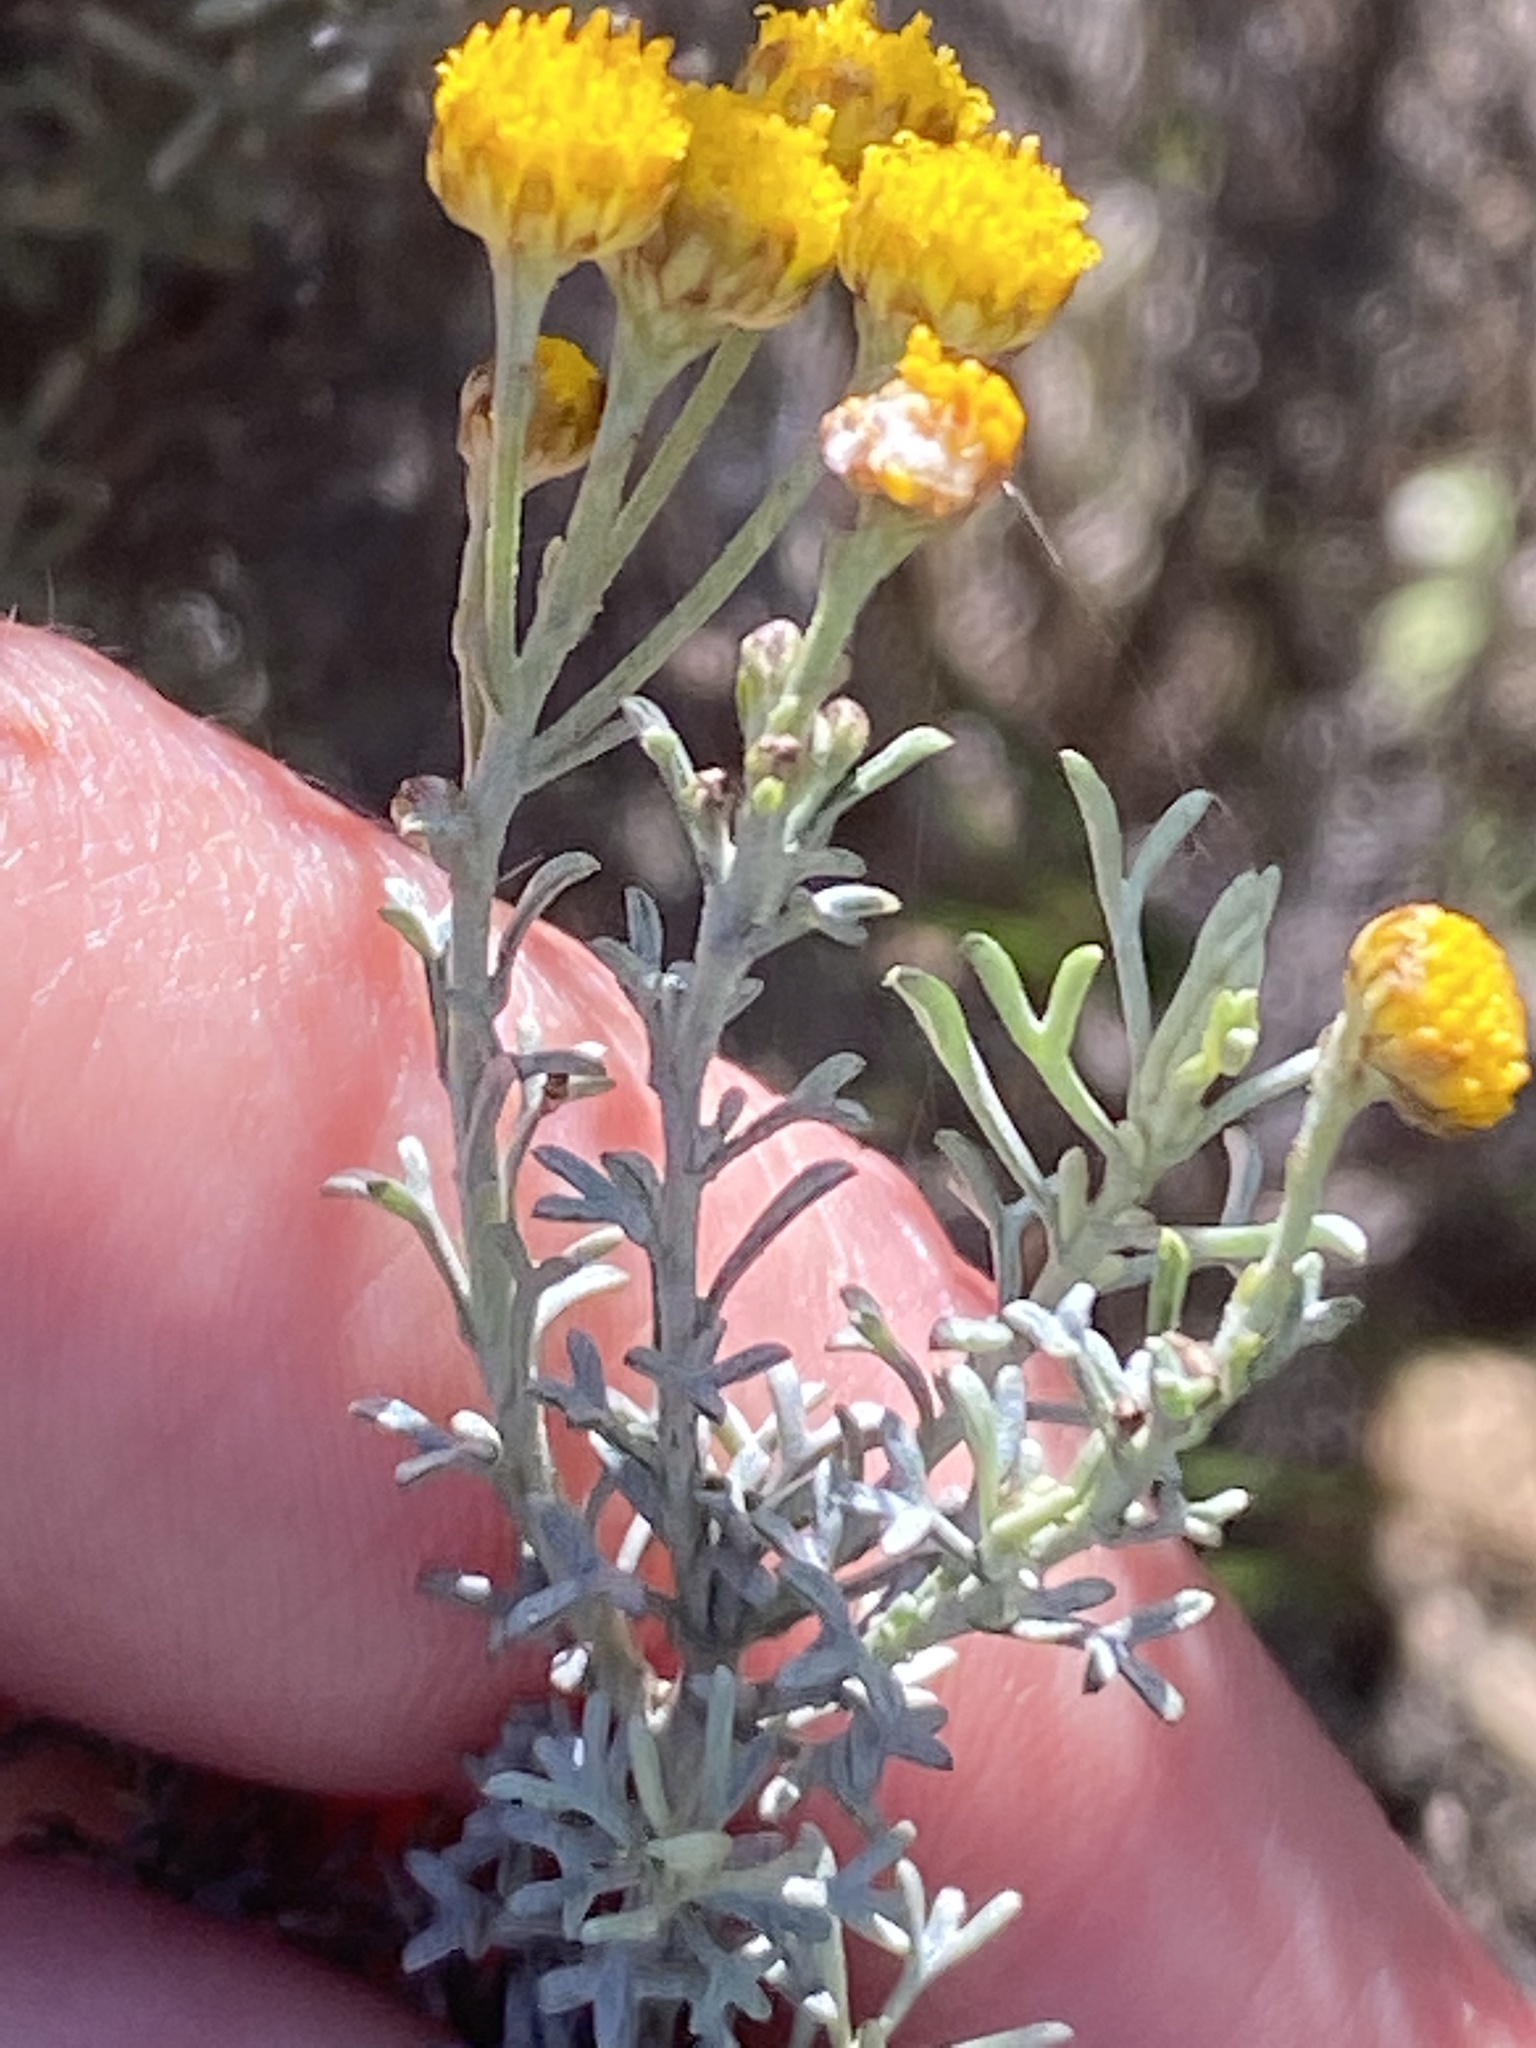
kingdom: Plantae
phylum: Tracheophyta
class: Magnoliopsida
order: Asterales
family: Asteraceae
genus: Helichrysum
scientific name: Helichrysum dasyanthum
